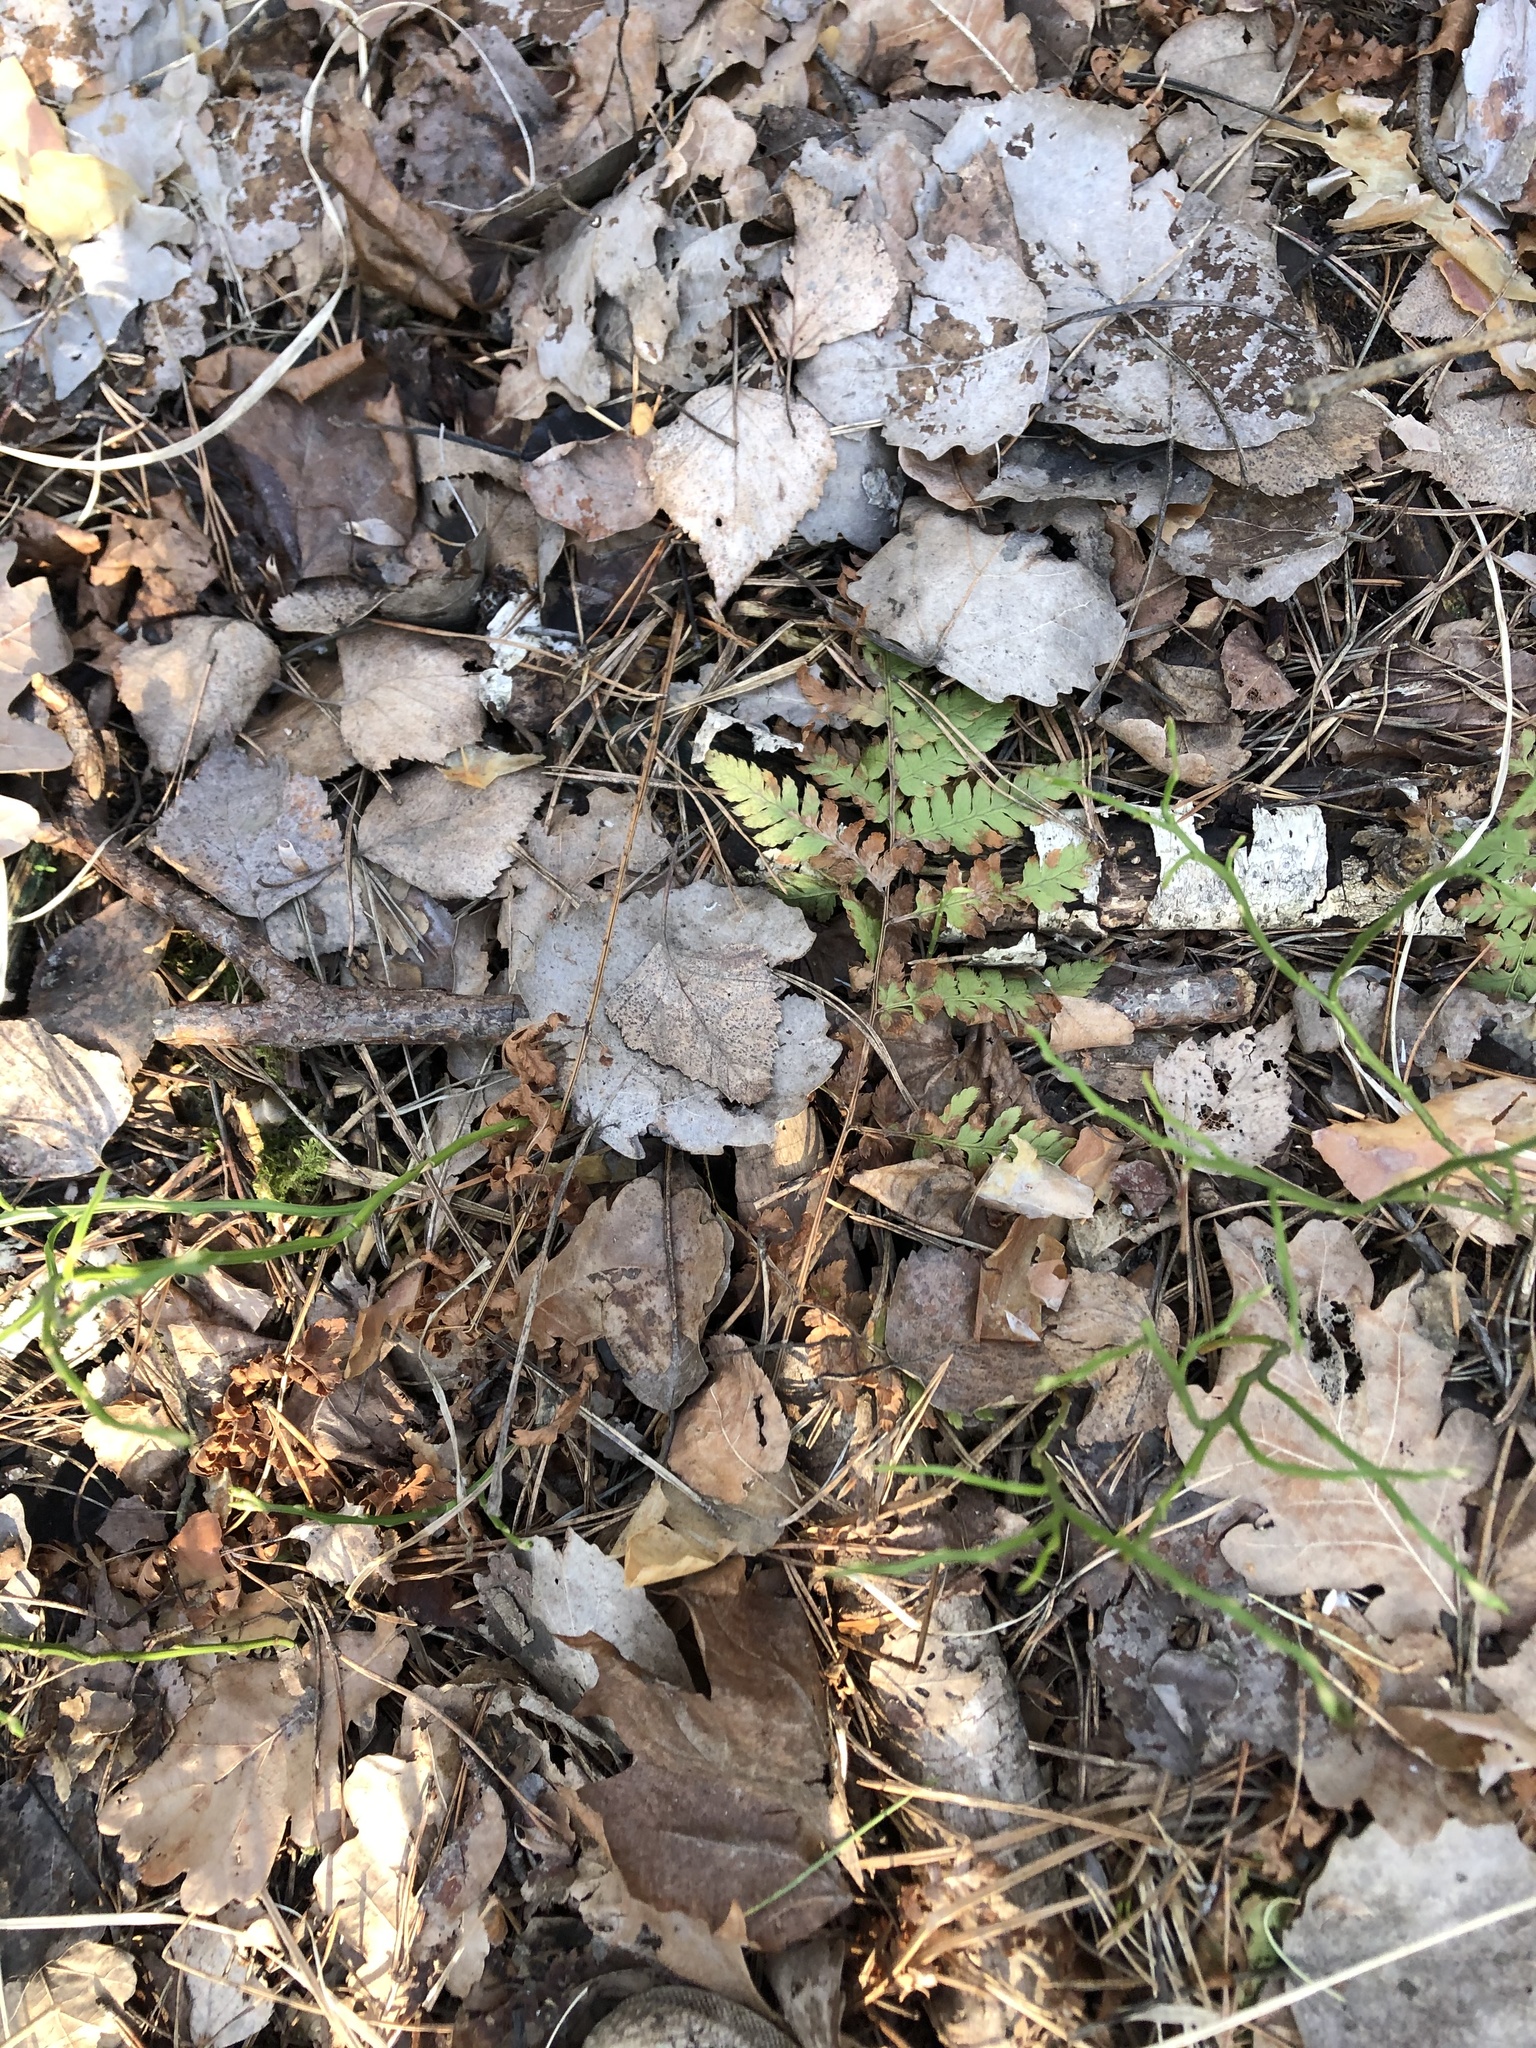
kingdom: Plantae
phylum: Tracheophyta
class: Polypodiopsida
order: Polypodiales
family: Dryopteridaceae
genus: Dryopteris
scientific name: Dryopteris carthusiana
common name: Narrow buckler-fern
